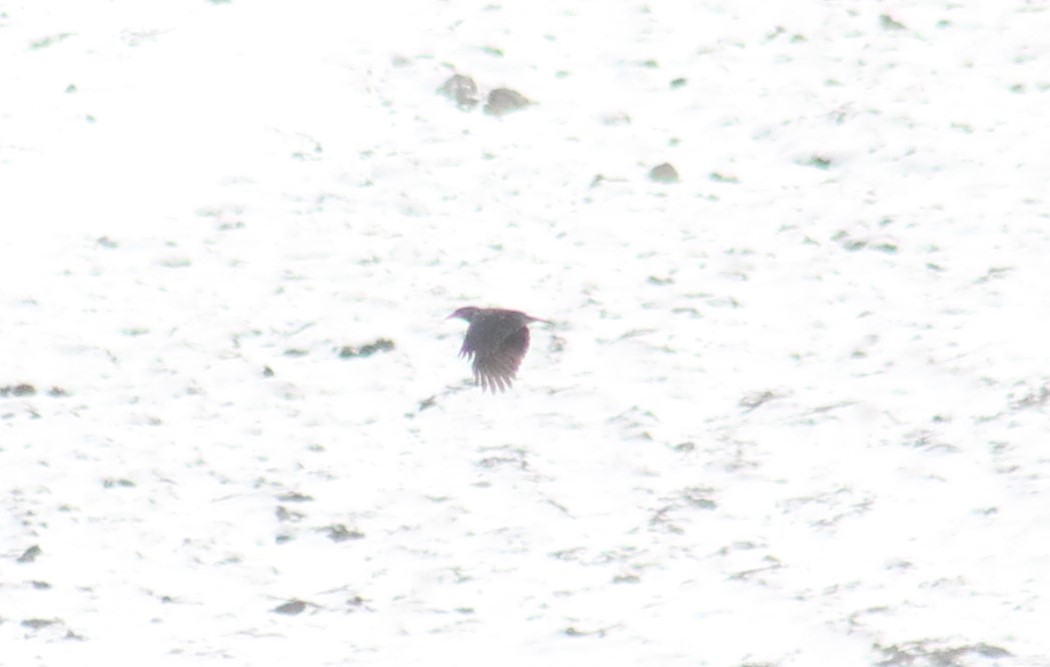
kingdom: Animalia
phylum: Chordata
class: Aves
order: Passeriformes
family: Corvidae
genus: Nucifraga
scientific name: Nucifraga caryocatactes
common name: Spotted nutcracker
